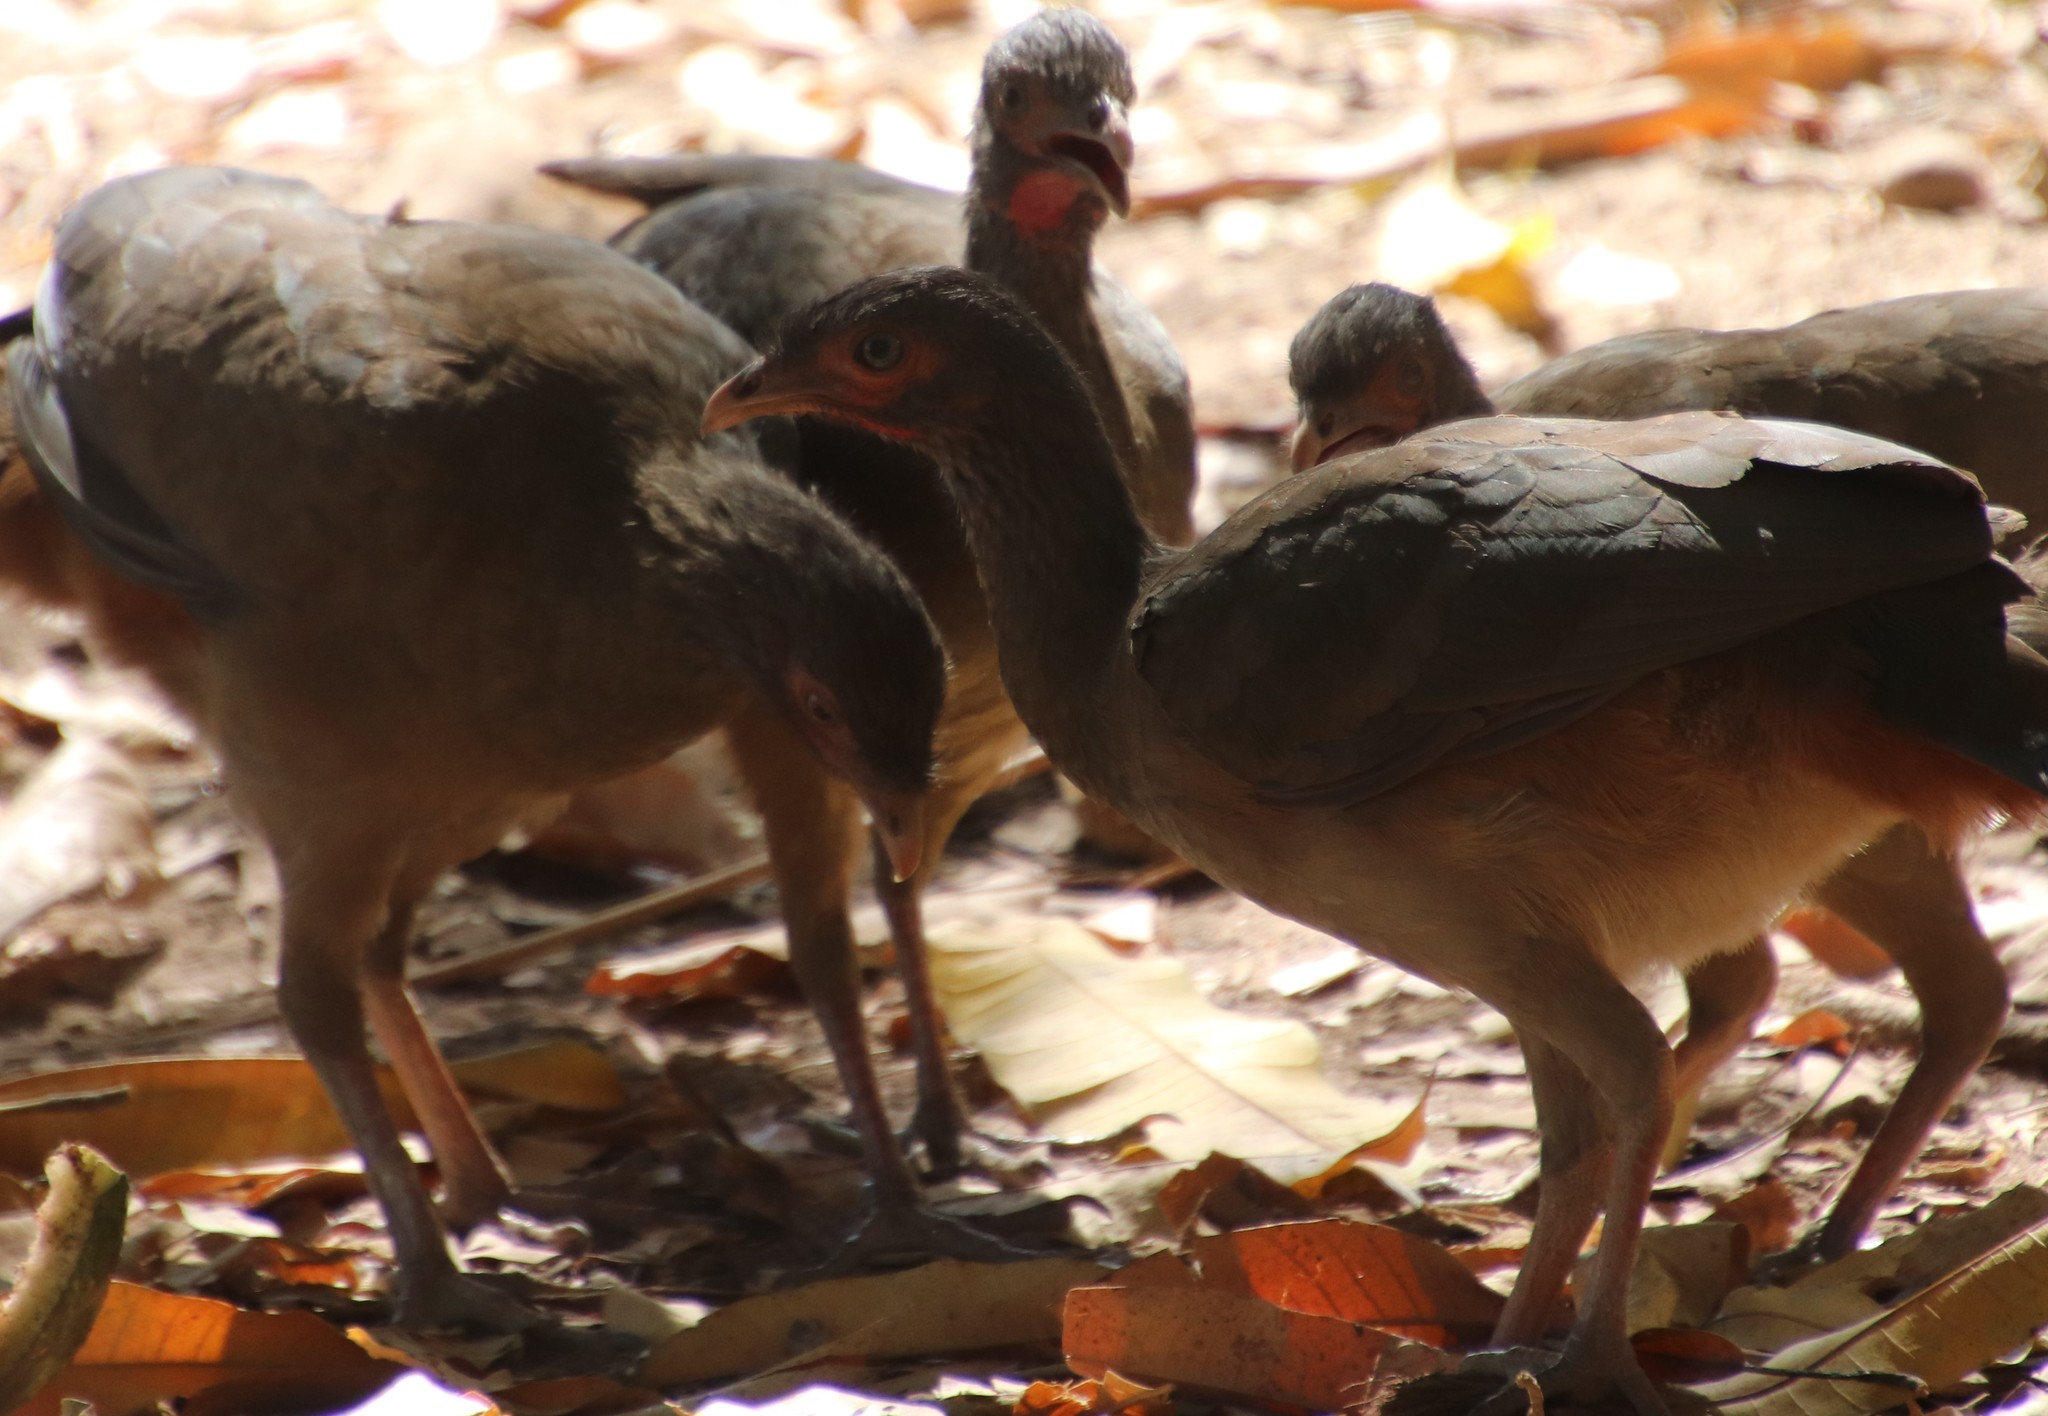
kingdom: Animalia
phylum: Chordata
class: Aves
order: Galliformes
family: Cracidae
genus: Ortalis
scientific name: Ortalis canicollis
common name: Chaco chachalaca
